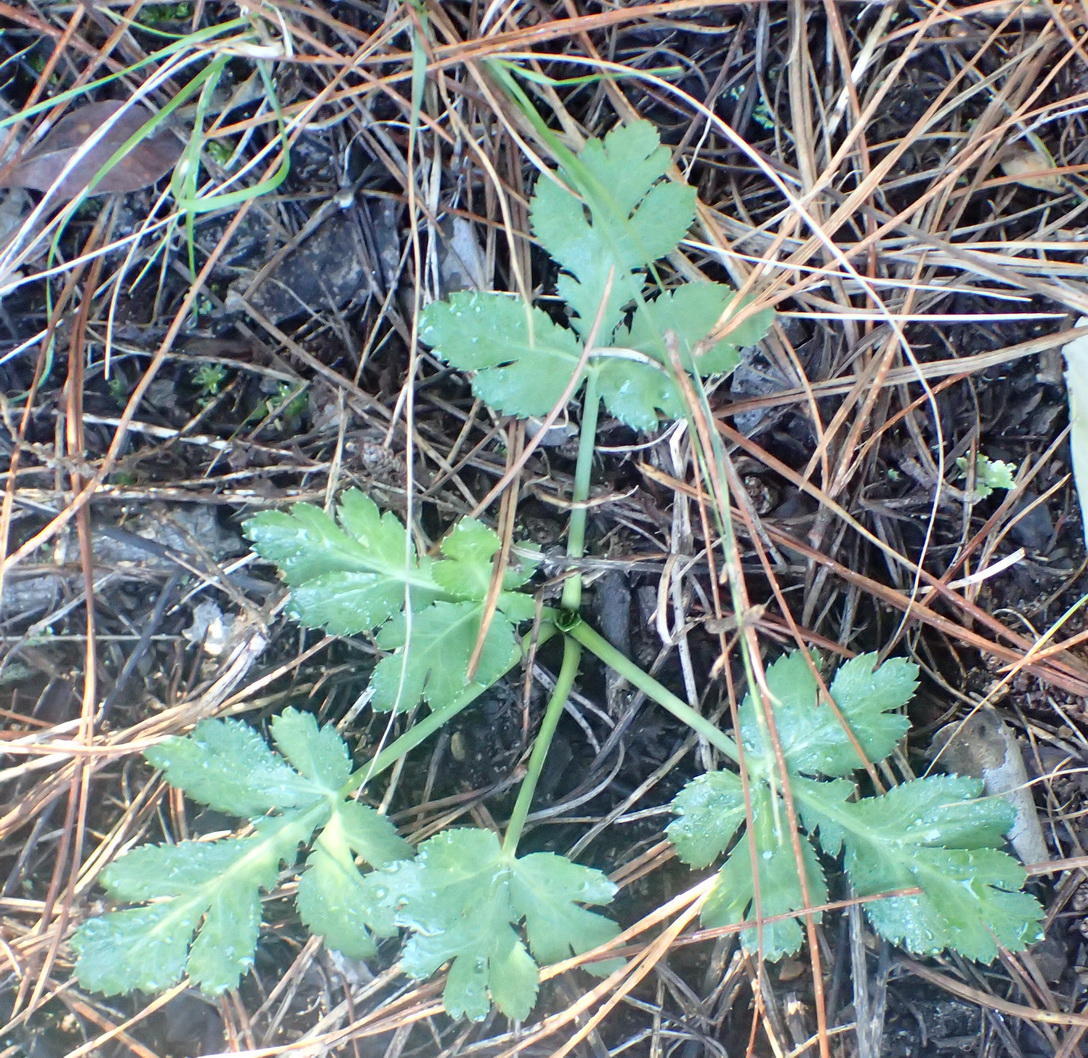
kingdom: Plantae
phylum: Tracheophyta
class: Magnoliopsida
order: Apiales
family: Apiaceae
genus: Lichtensteinia
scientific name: Lichtensteinia interrupta
